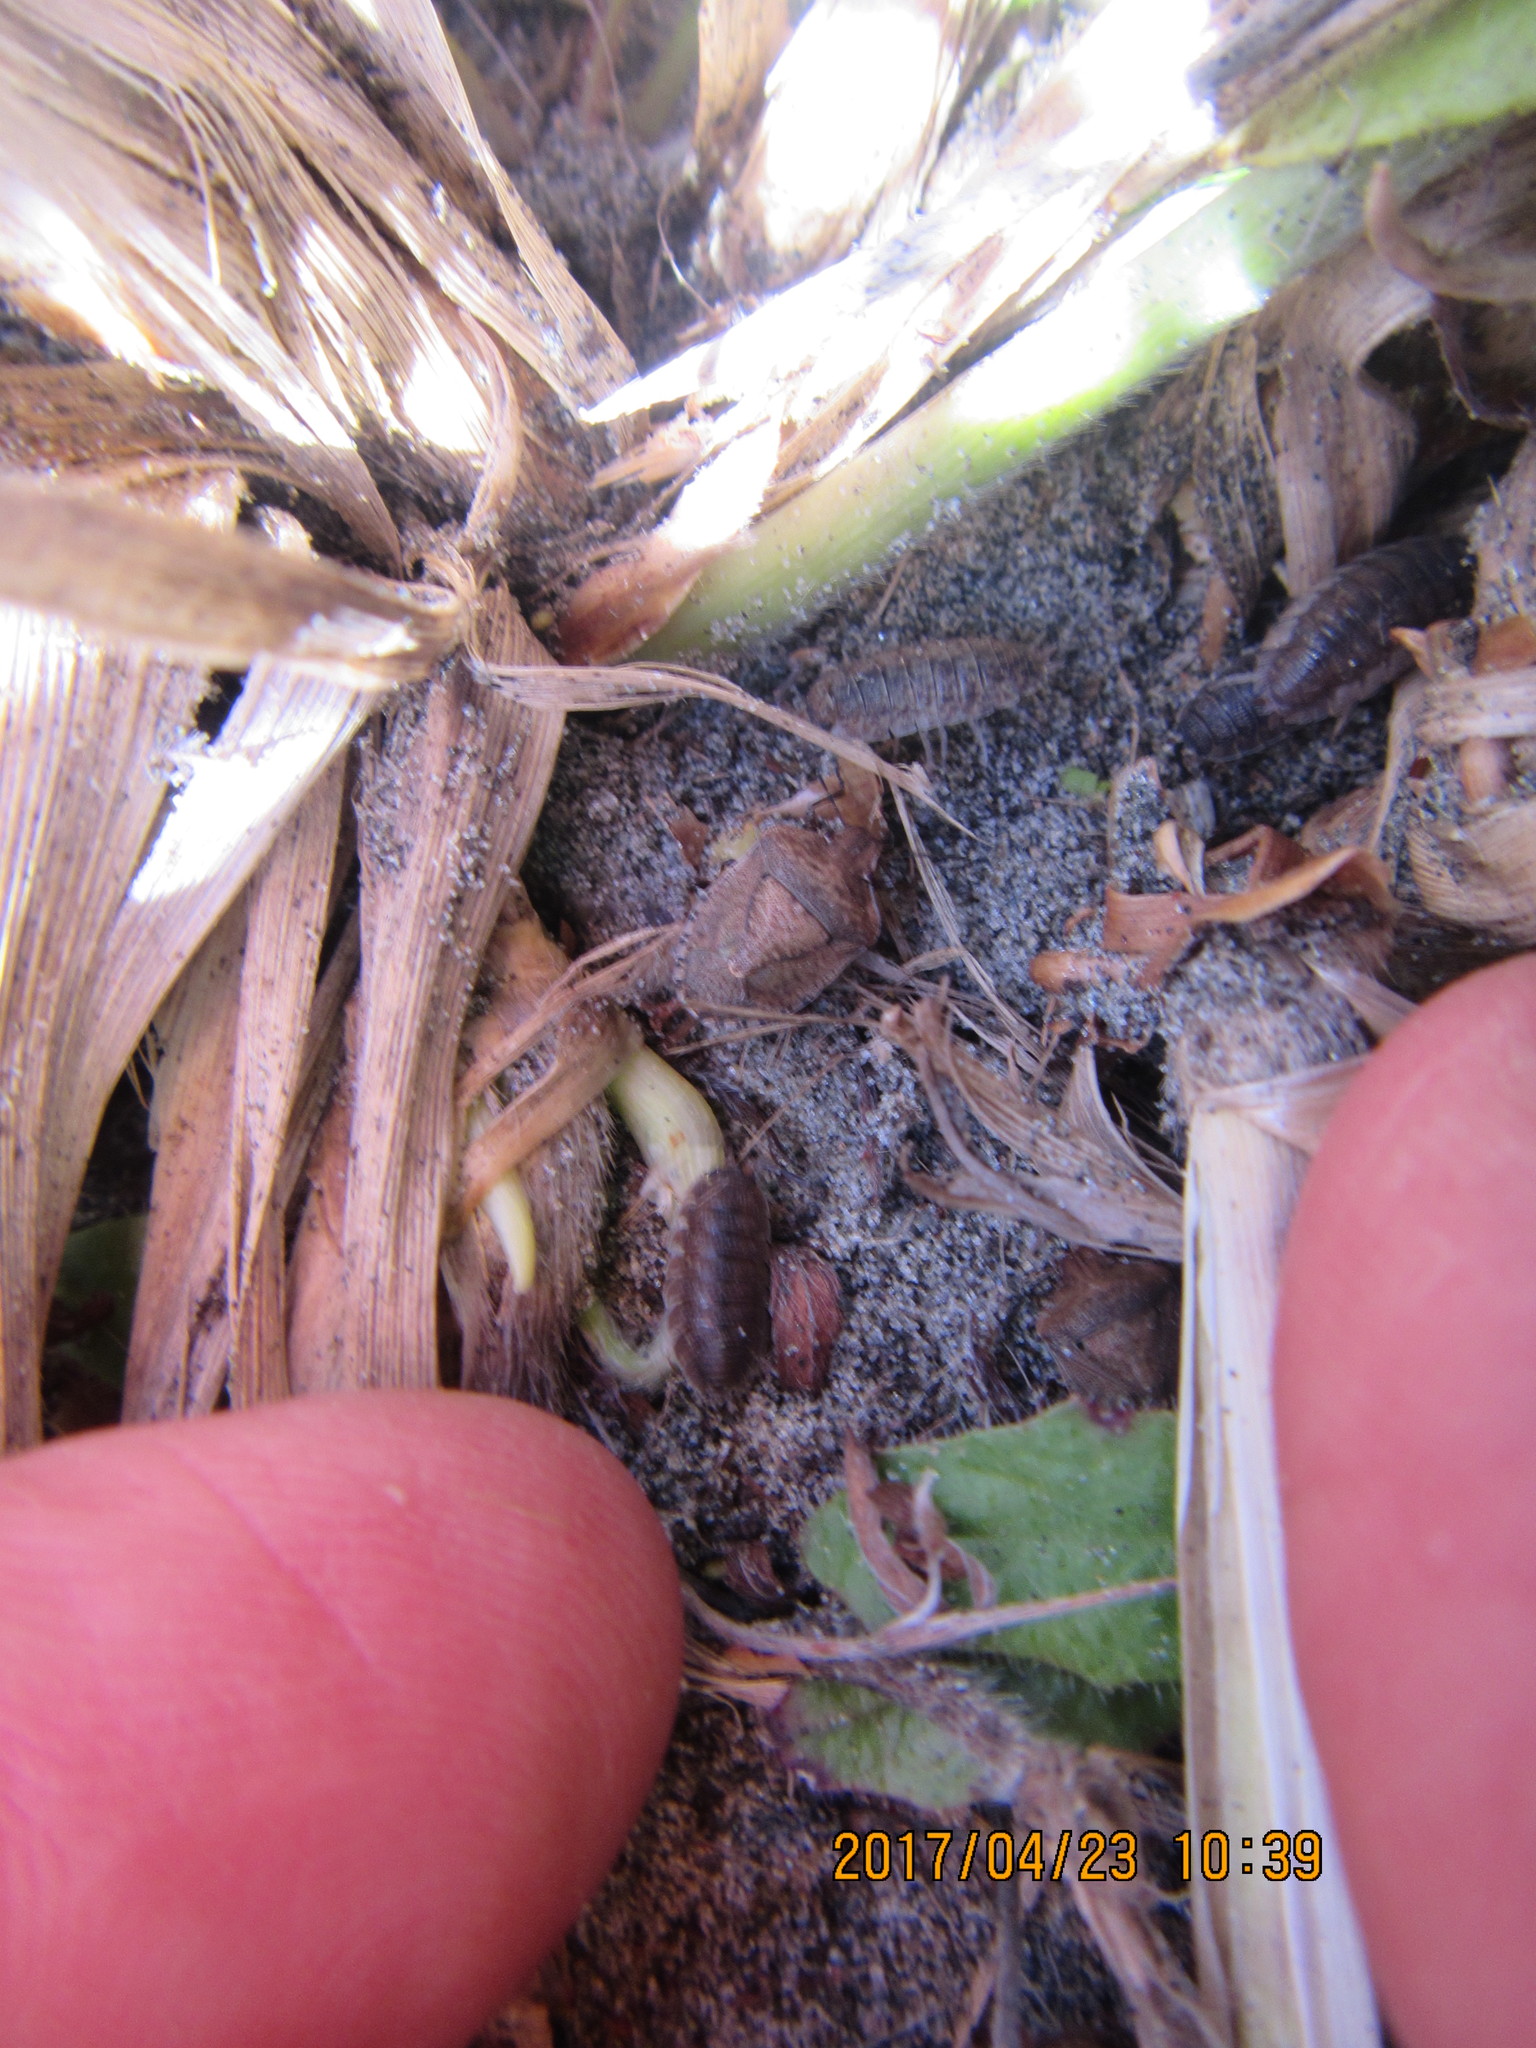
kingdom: Animalia
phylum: Arthropoda
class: Insecta
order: Hemiptera
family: Pentatomidae
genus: Dictyotus
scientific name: Dictyotus caenosus
